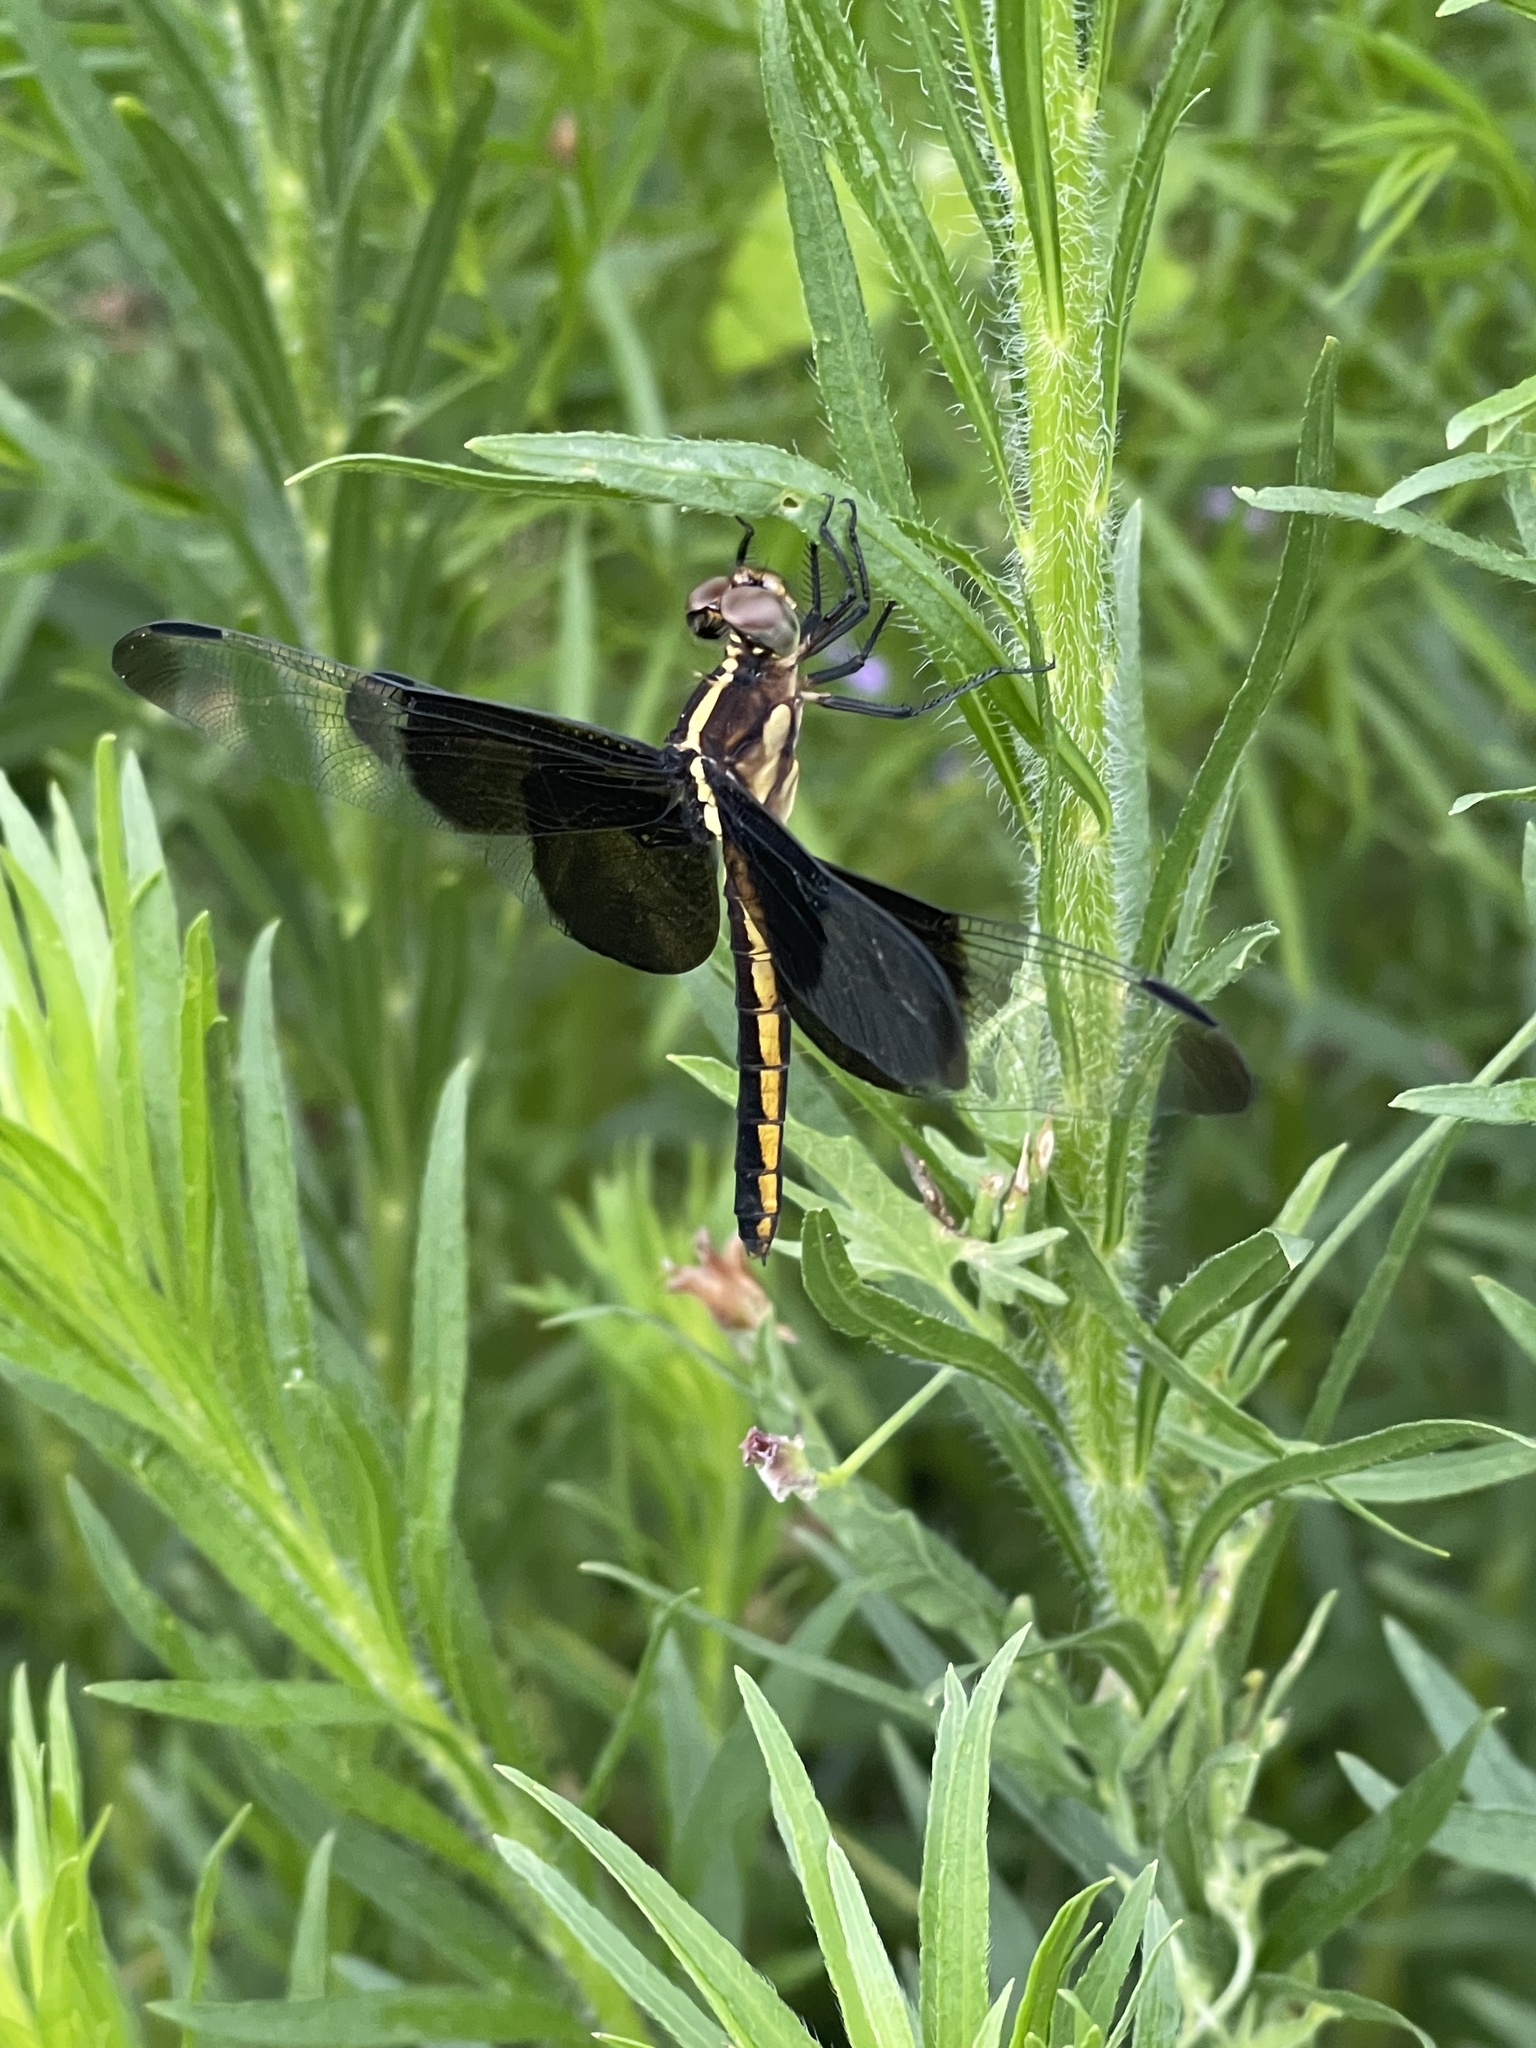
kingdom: Animalia
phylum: Arthropoda
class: Insecta
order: Odonata
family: Libellulidae
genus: Libellula
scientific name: Libellula luctuosa
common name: Widow skimmer
